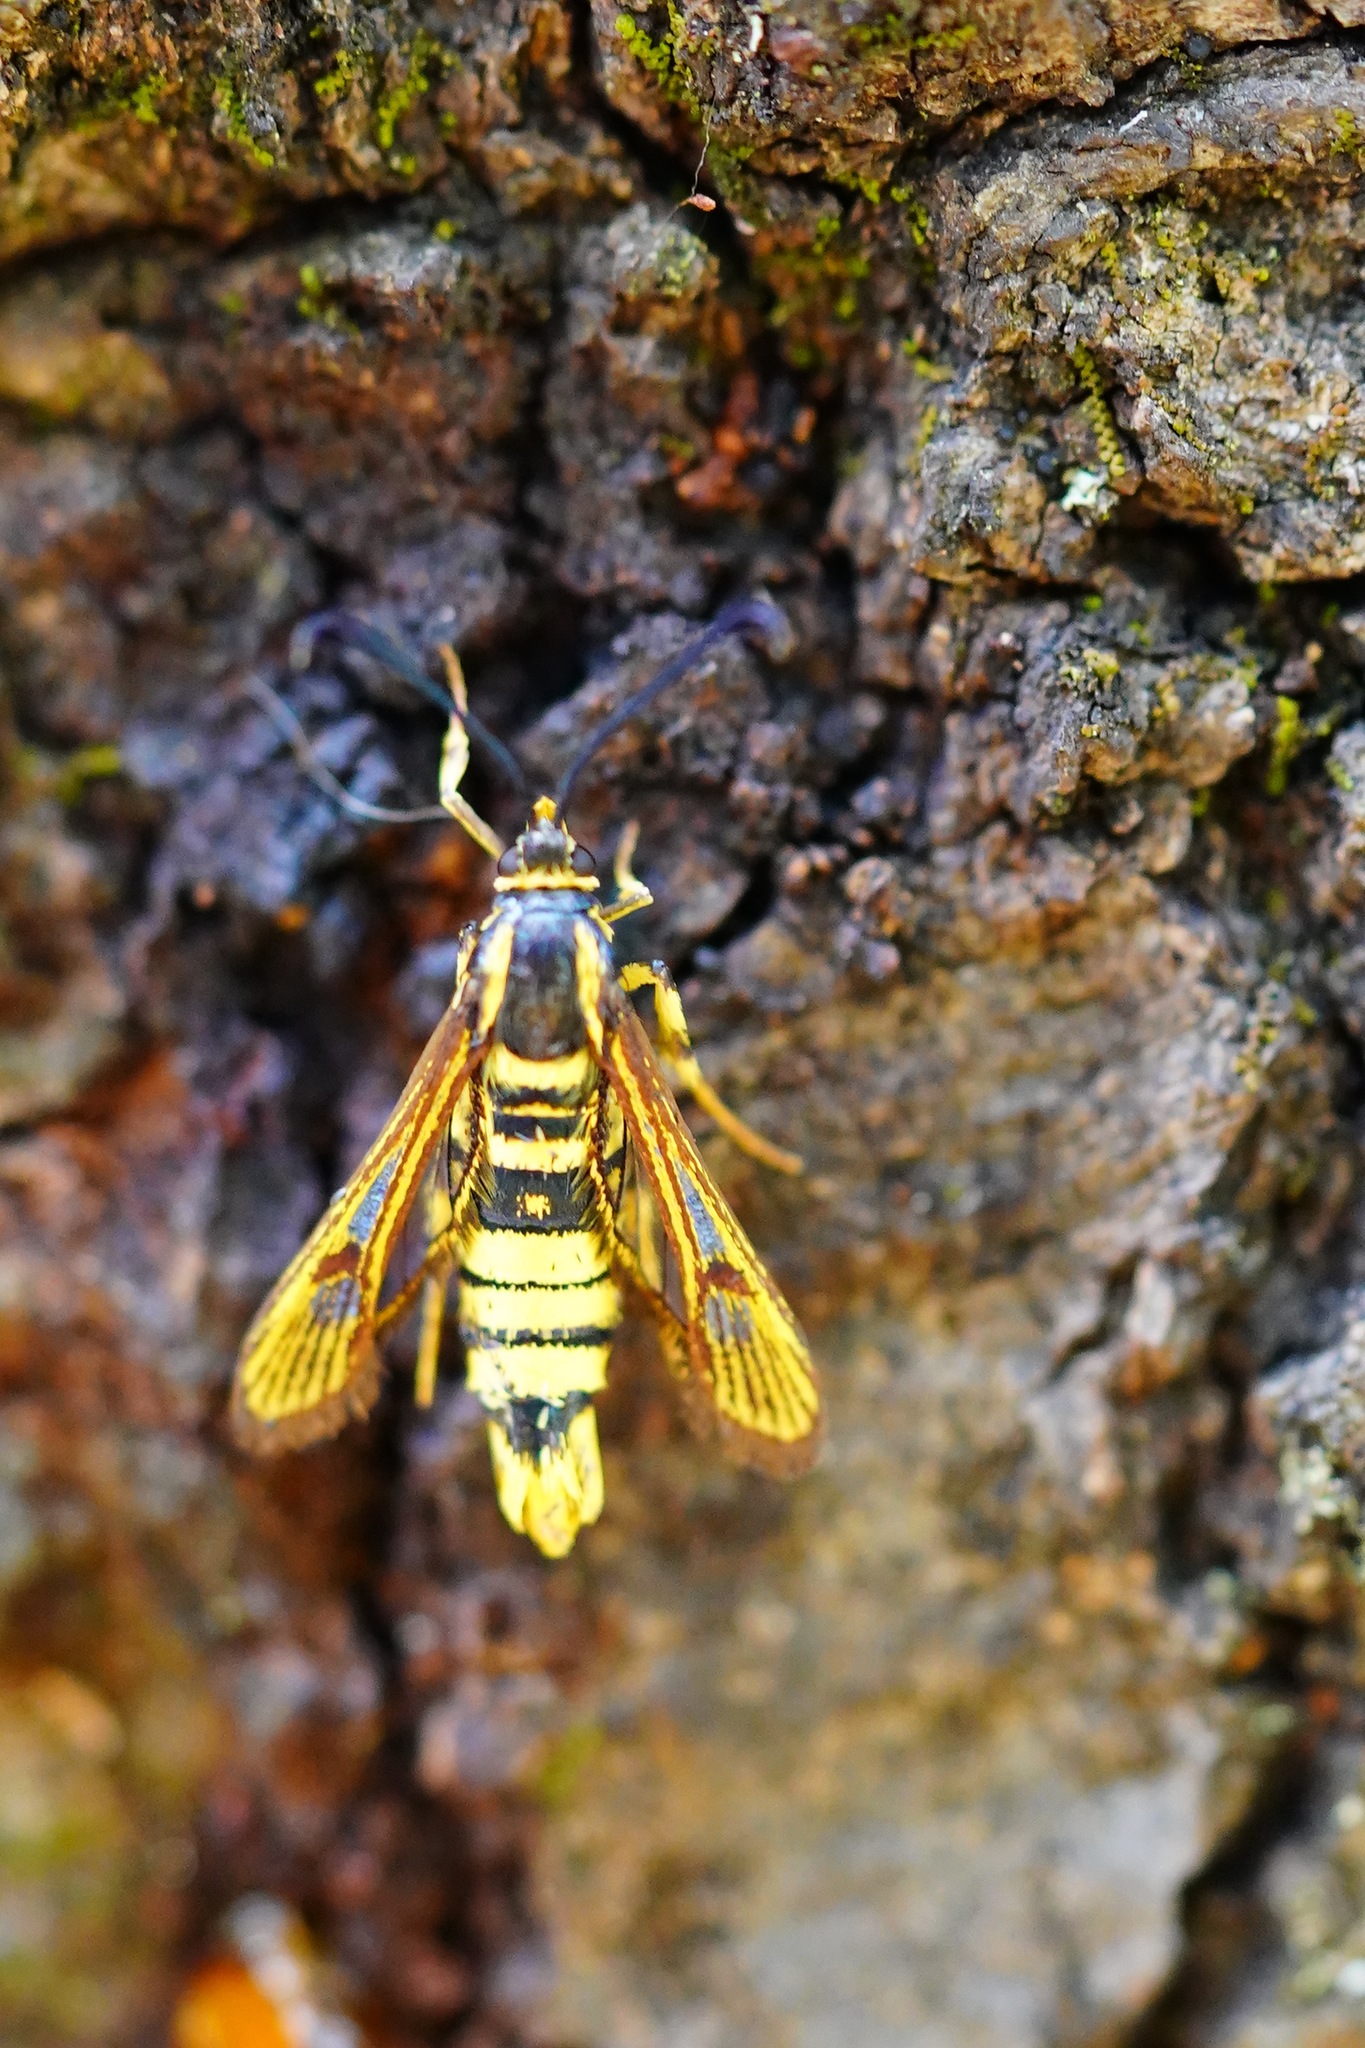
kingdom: Animalia
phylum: Arthropoda
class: Insecta
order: Lepidoptera
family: Sesiidae
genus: Synanthedon
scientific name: Synanthedon resplendens
